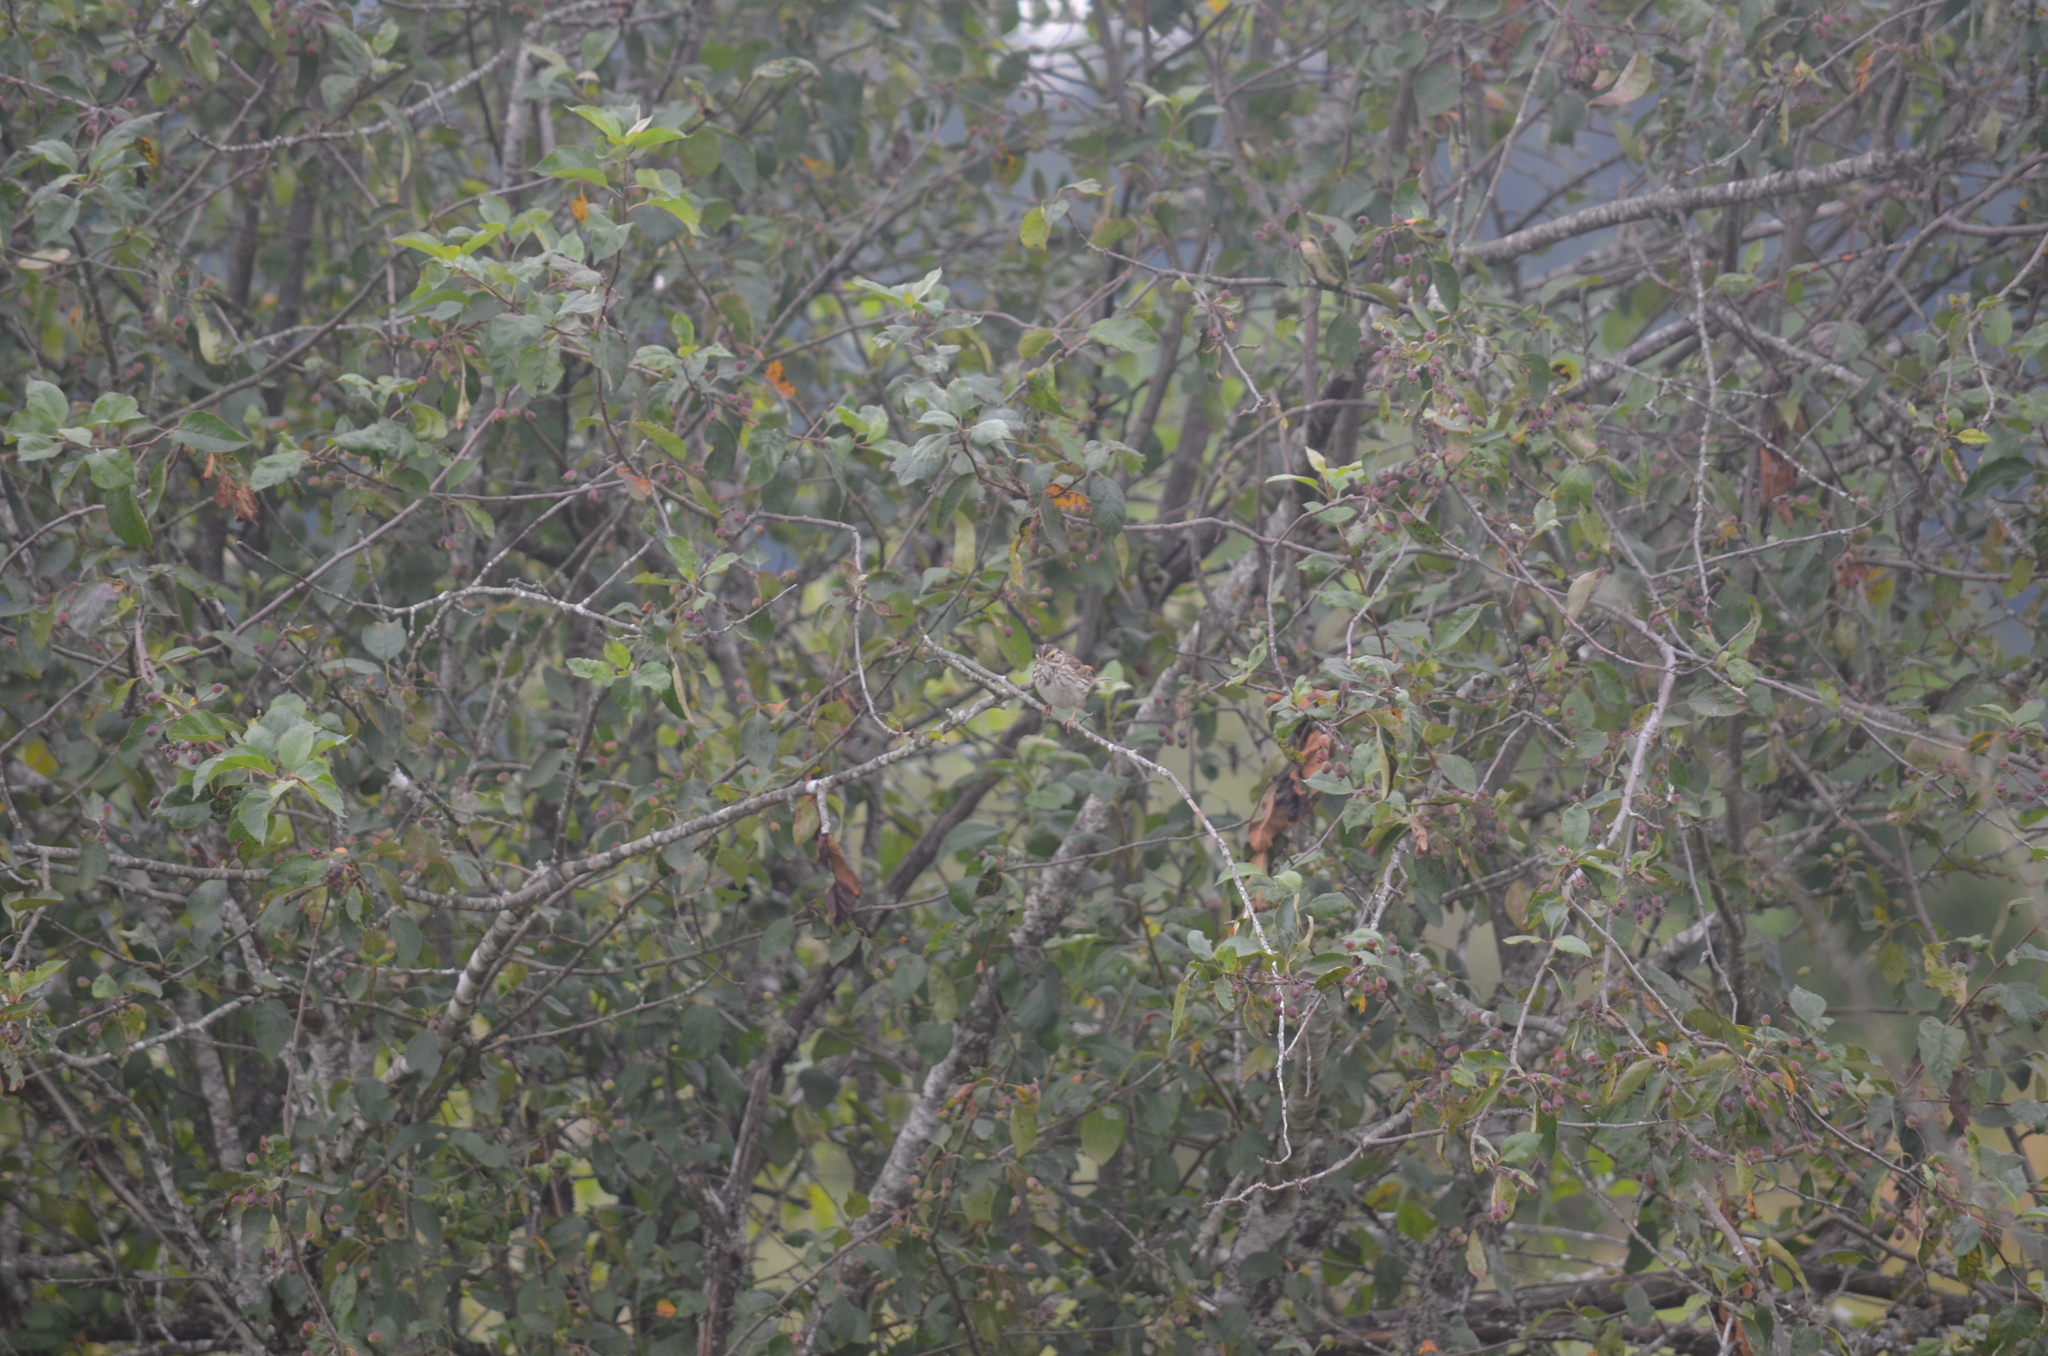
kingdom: Animalia
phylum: Chordata
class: Aves
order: Passeriformes
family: Passerellidae
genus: Passerculus
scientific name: Passerculus sandwichensis
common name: Savannah sparrow
